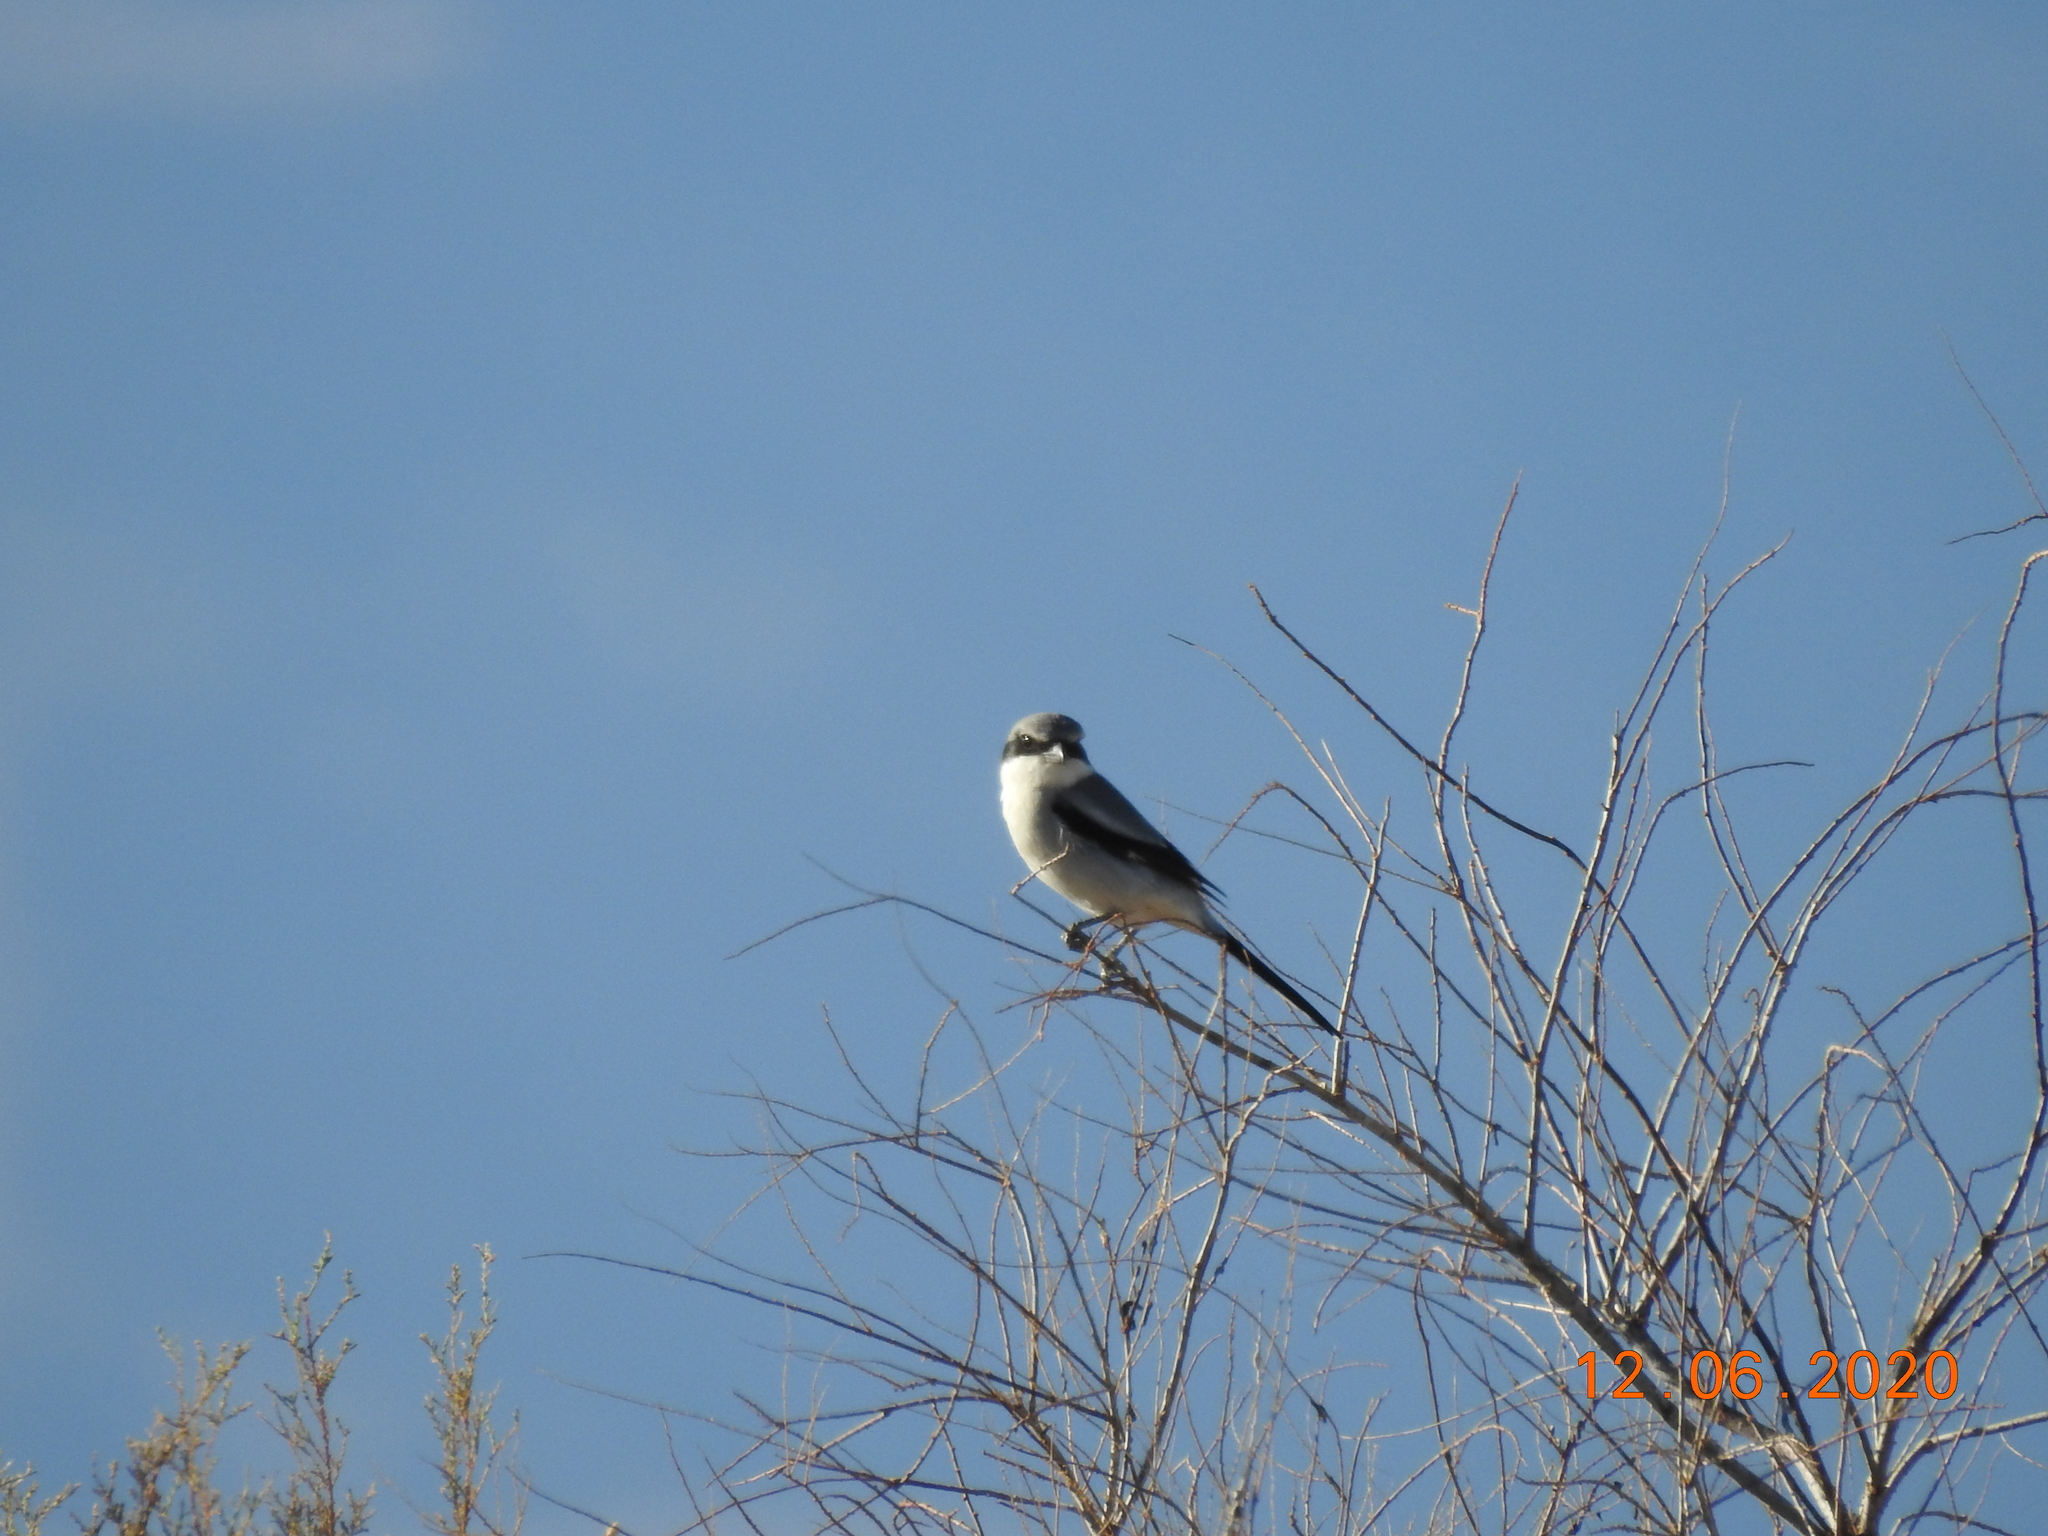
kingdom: Animalia
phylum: Chordata
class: Aves
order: Passeriformes
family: Laniidae
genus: Lanius
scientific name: Lanius ludovicianus
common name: Loggerhead shrike
